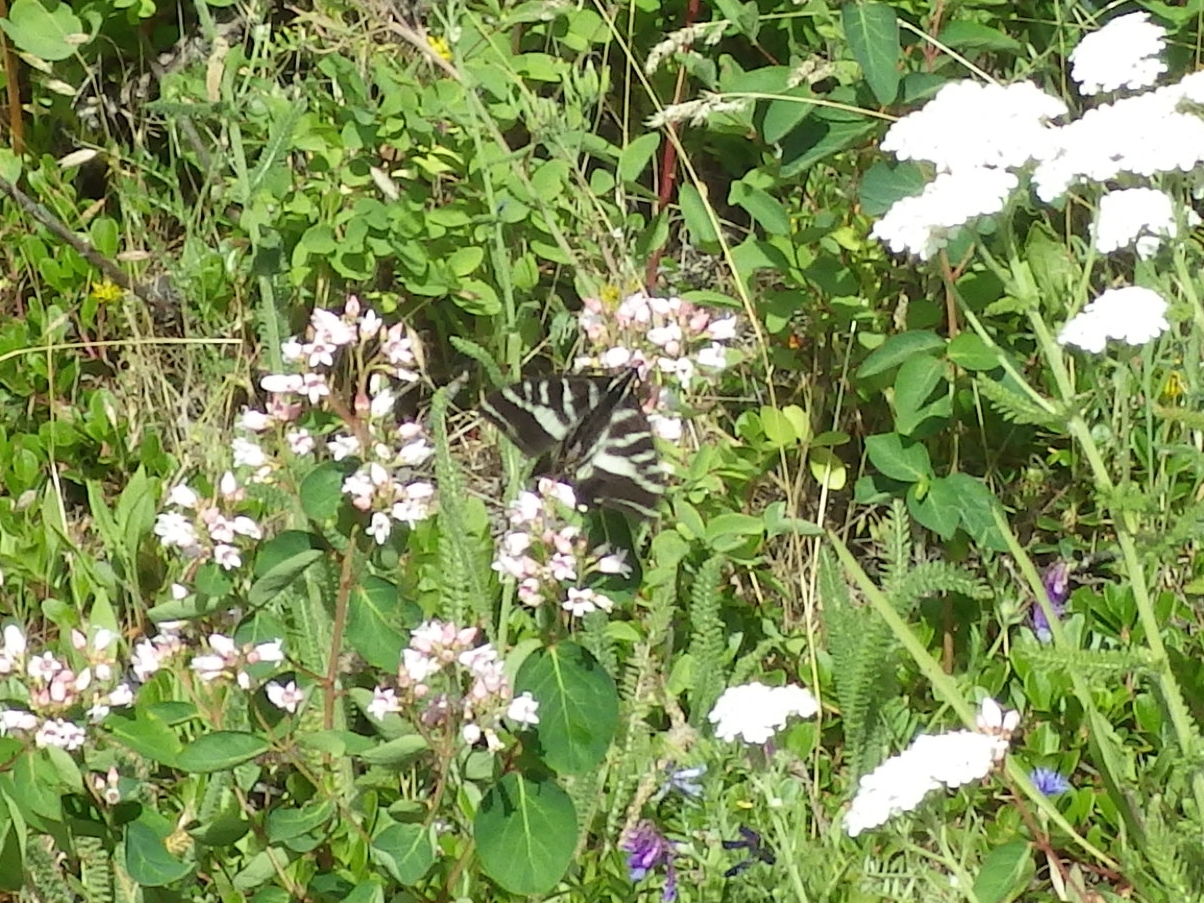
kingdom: Animalia
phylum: Arthropoda
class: Insecta
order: Lepidoptera
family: Papilionidae
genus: Papilio
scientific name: Papilio eurymedon
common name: Pale tiger swallowtail
